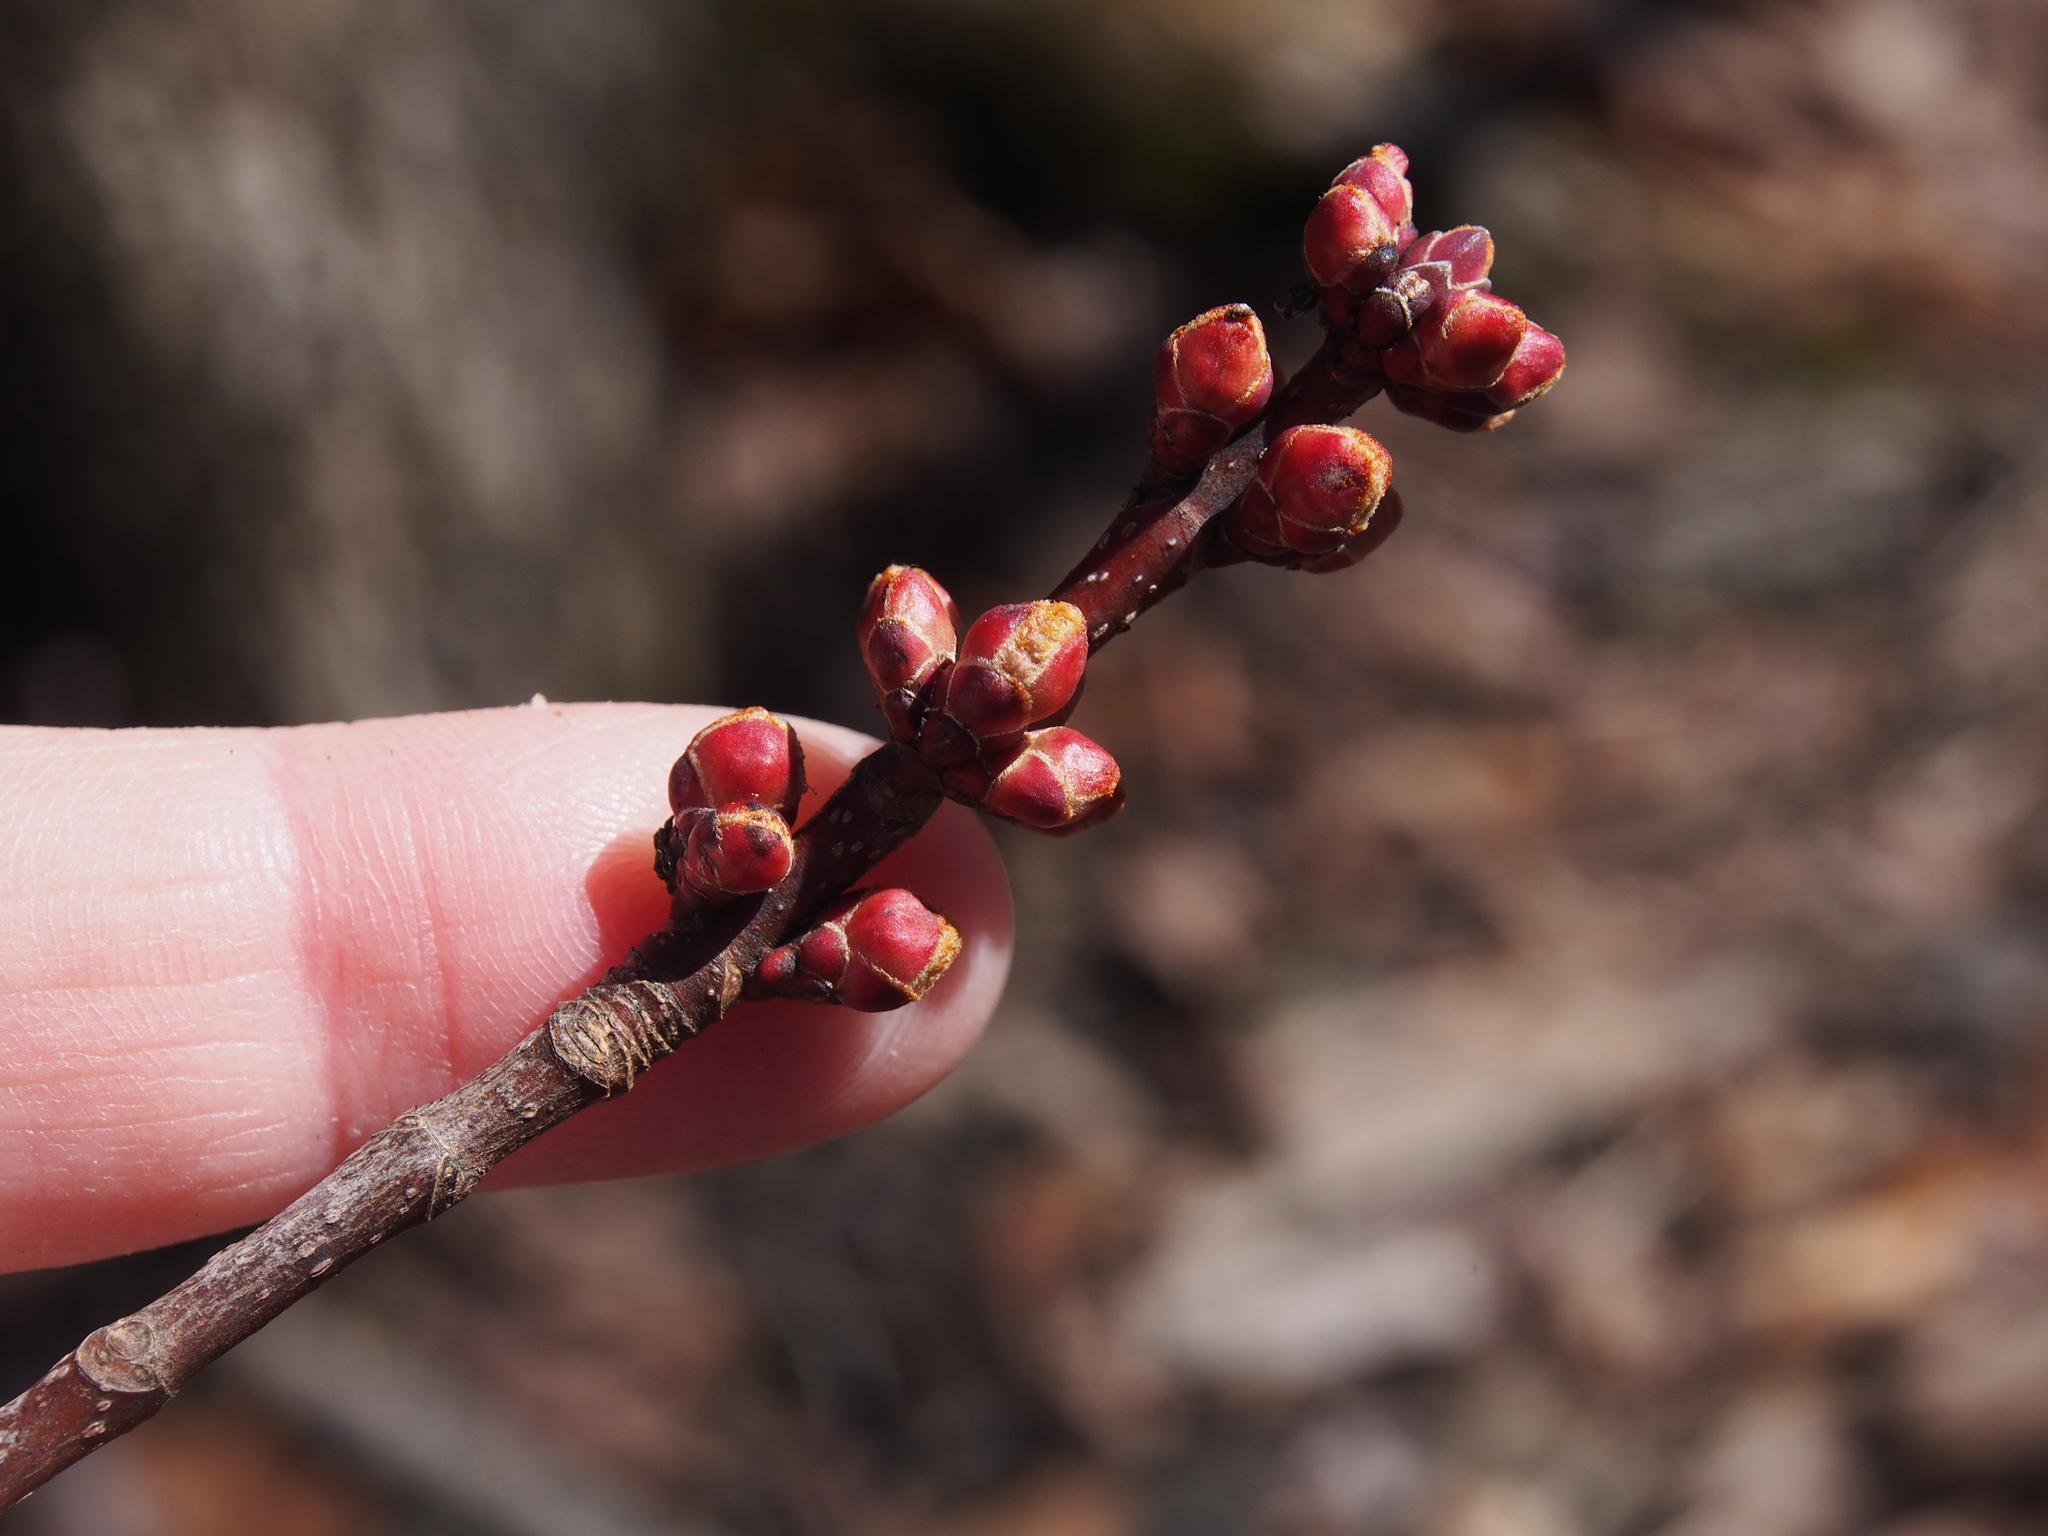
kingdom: Plantae
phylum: Tracheophyta
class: Magnoliopsida
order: Sapindales
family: Sapindaceae
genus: Acer
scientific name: Acer rubrum
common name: Red maple
